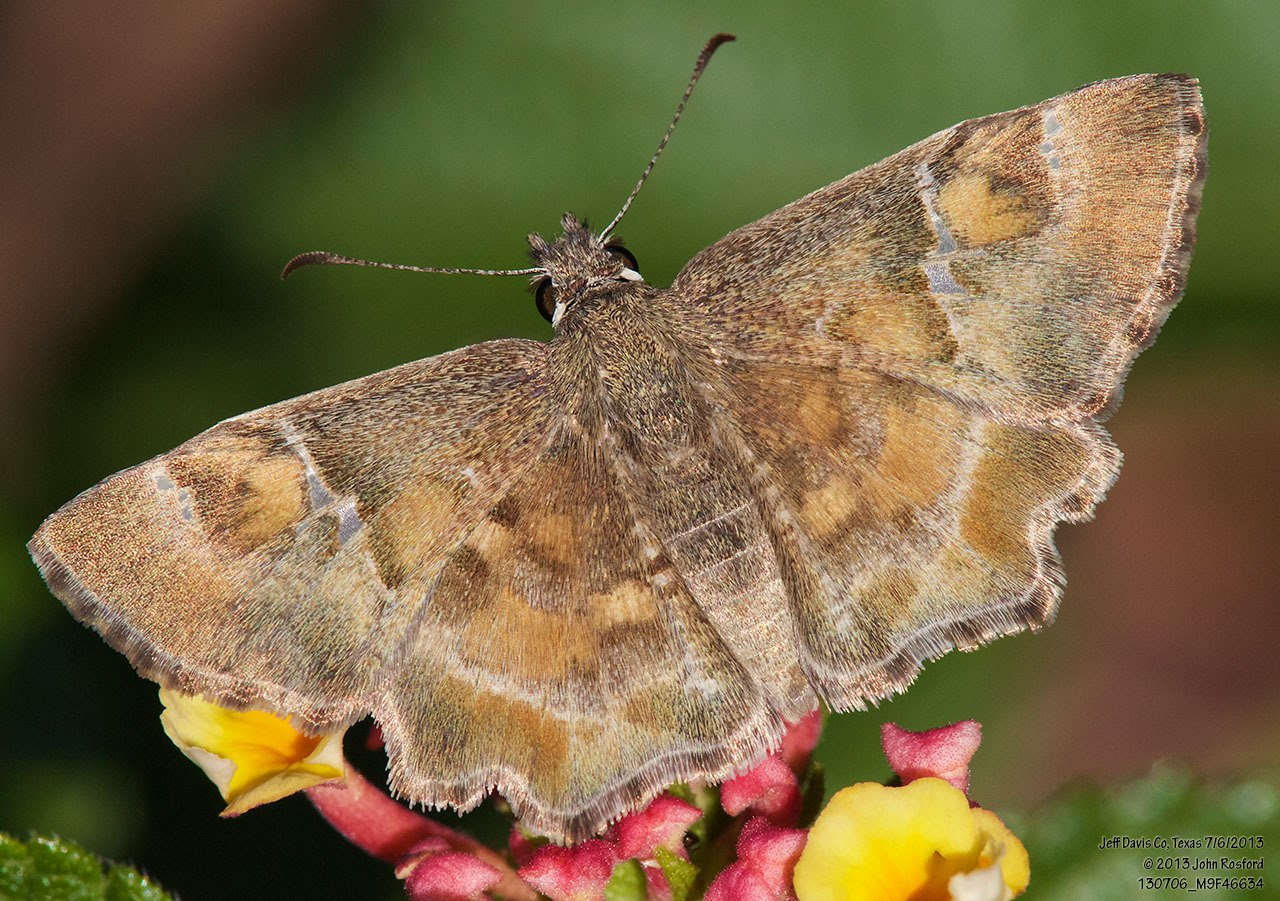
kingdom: Animalia
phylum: Arthropoda
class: Insecta
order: Lepidoptera
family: Hesperiidae
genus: Systasea
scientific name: Systasea zampa
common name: Arizona powdered-skipper
